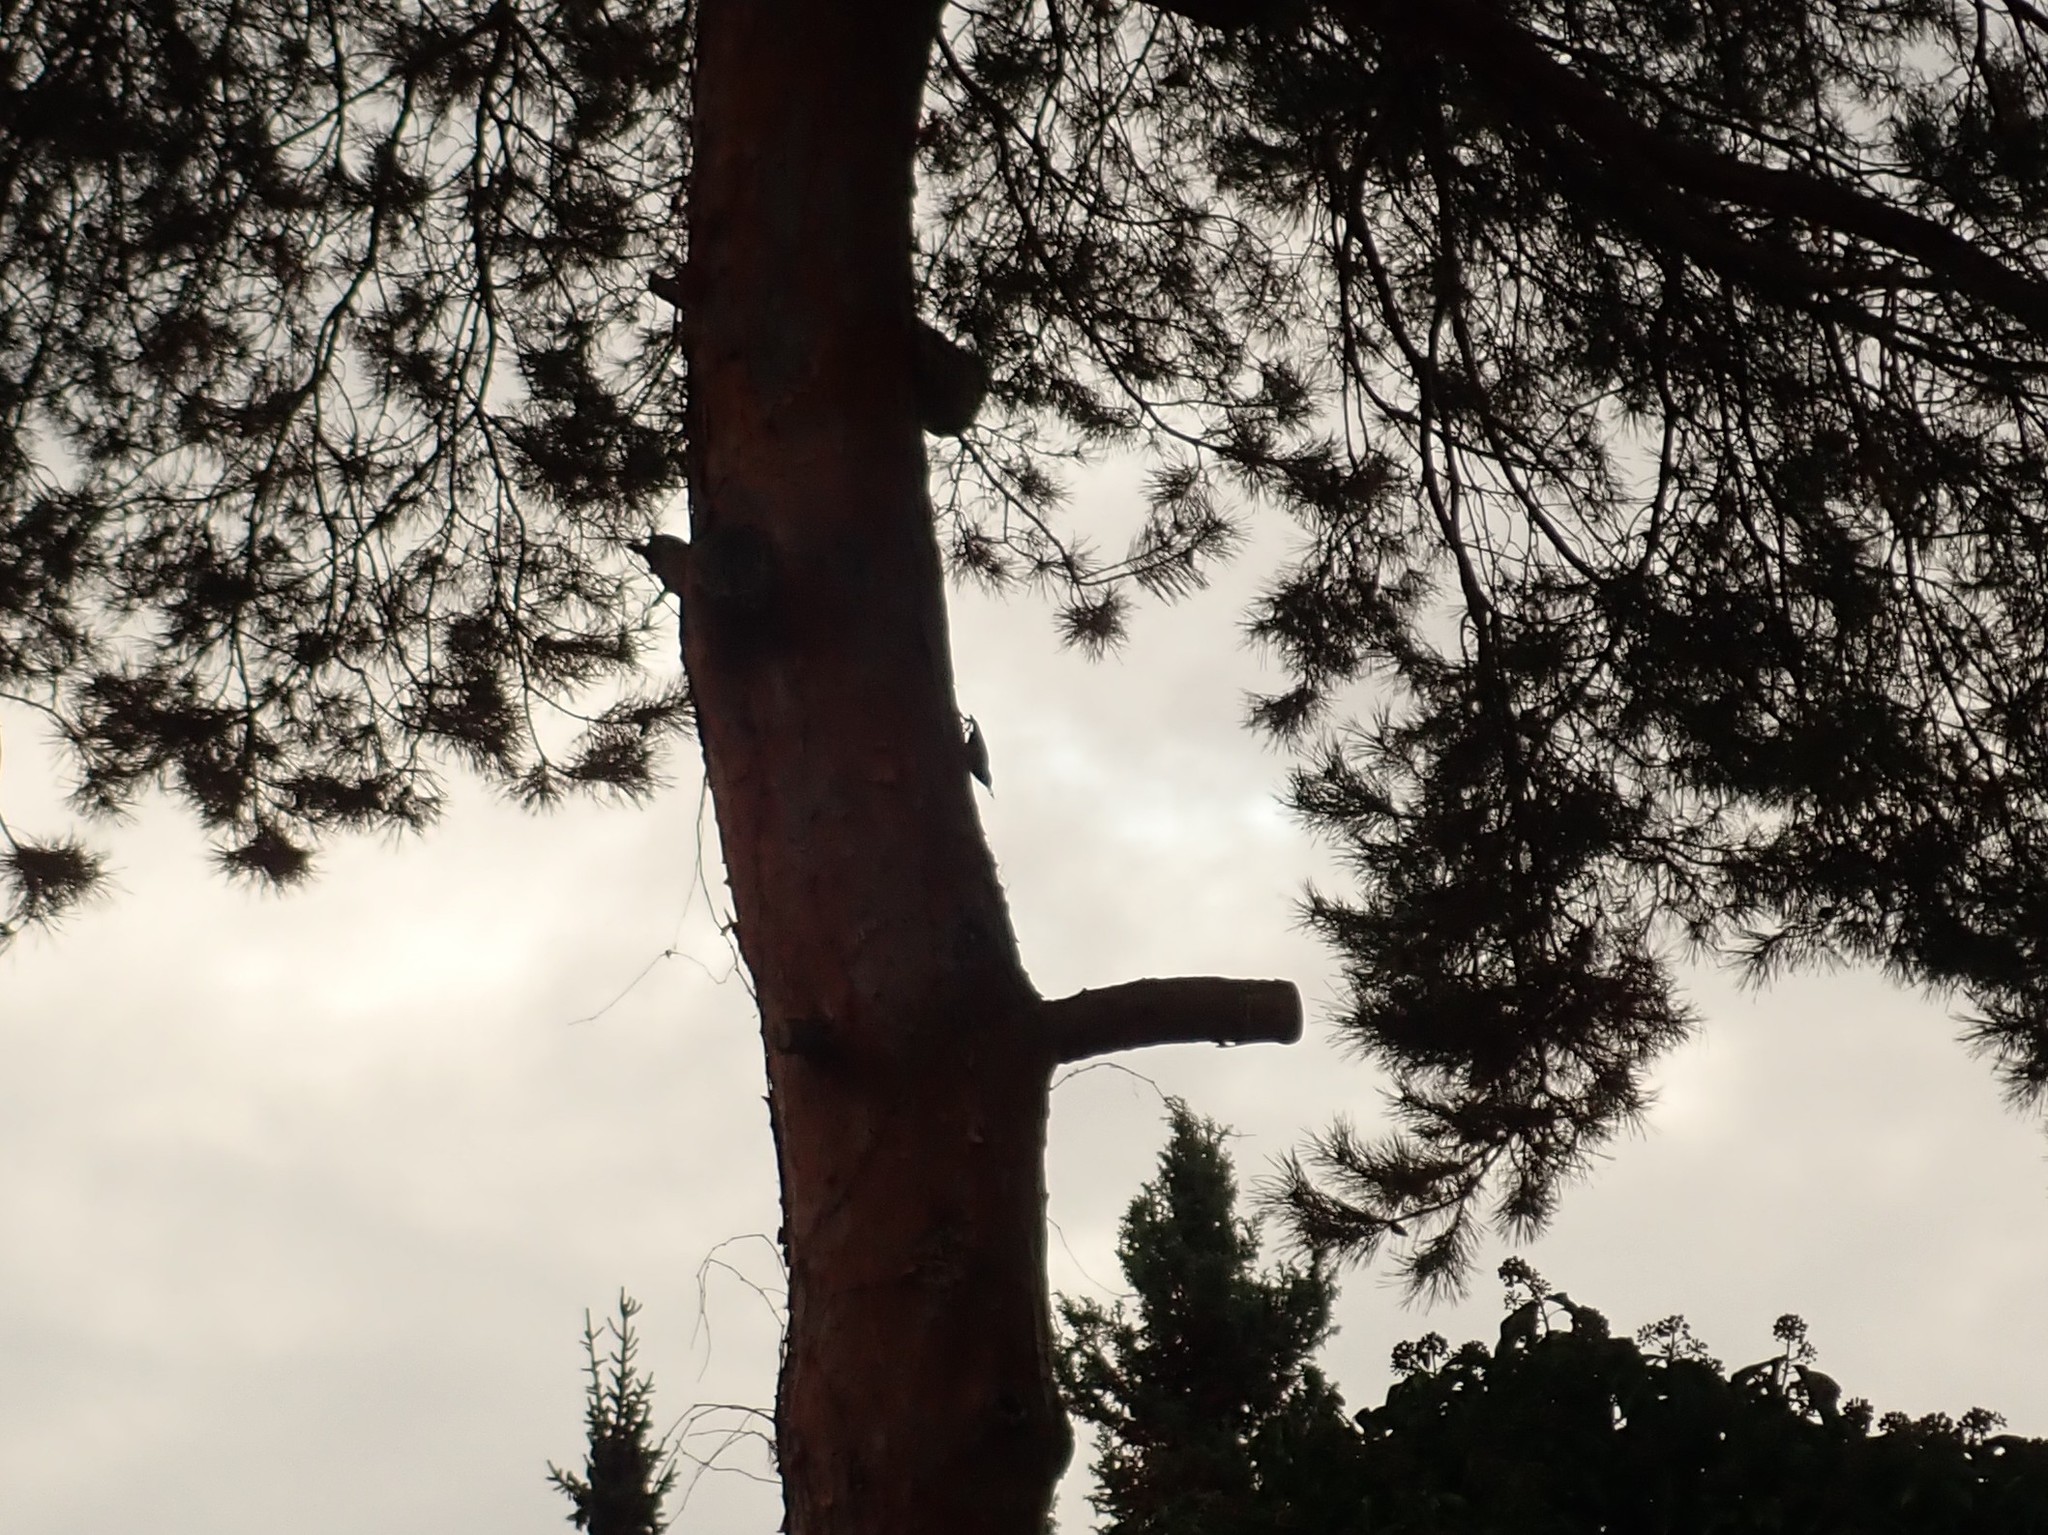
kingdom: Animalia
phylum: Chordata
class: Aves
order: Passeriformes
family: Sittidae
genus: Sitta
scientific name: Sitta europaea
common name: Eurasian nuthatch
